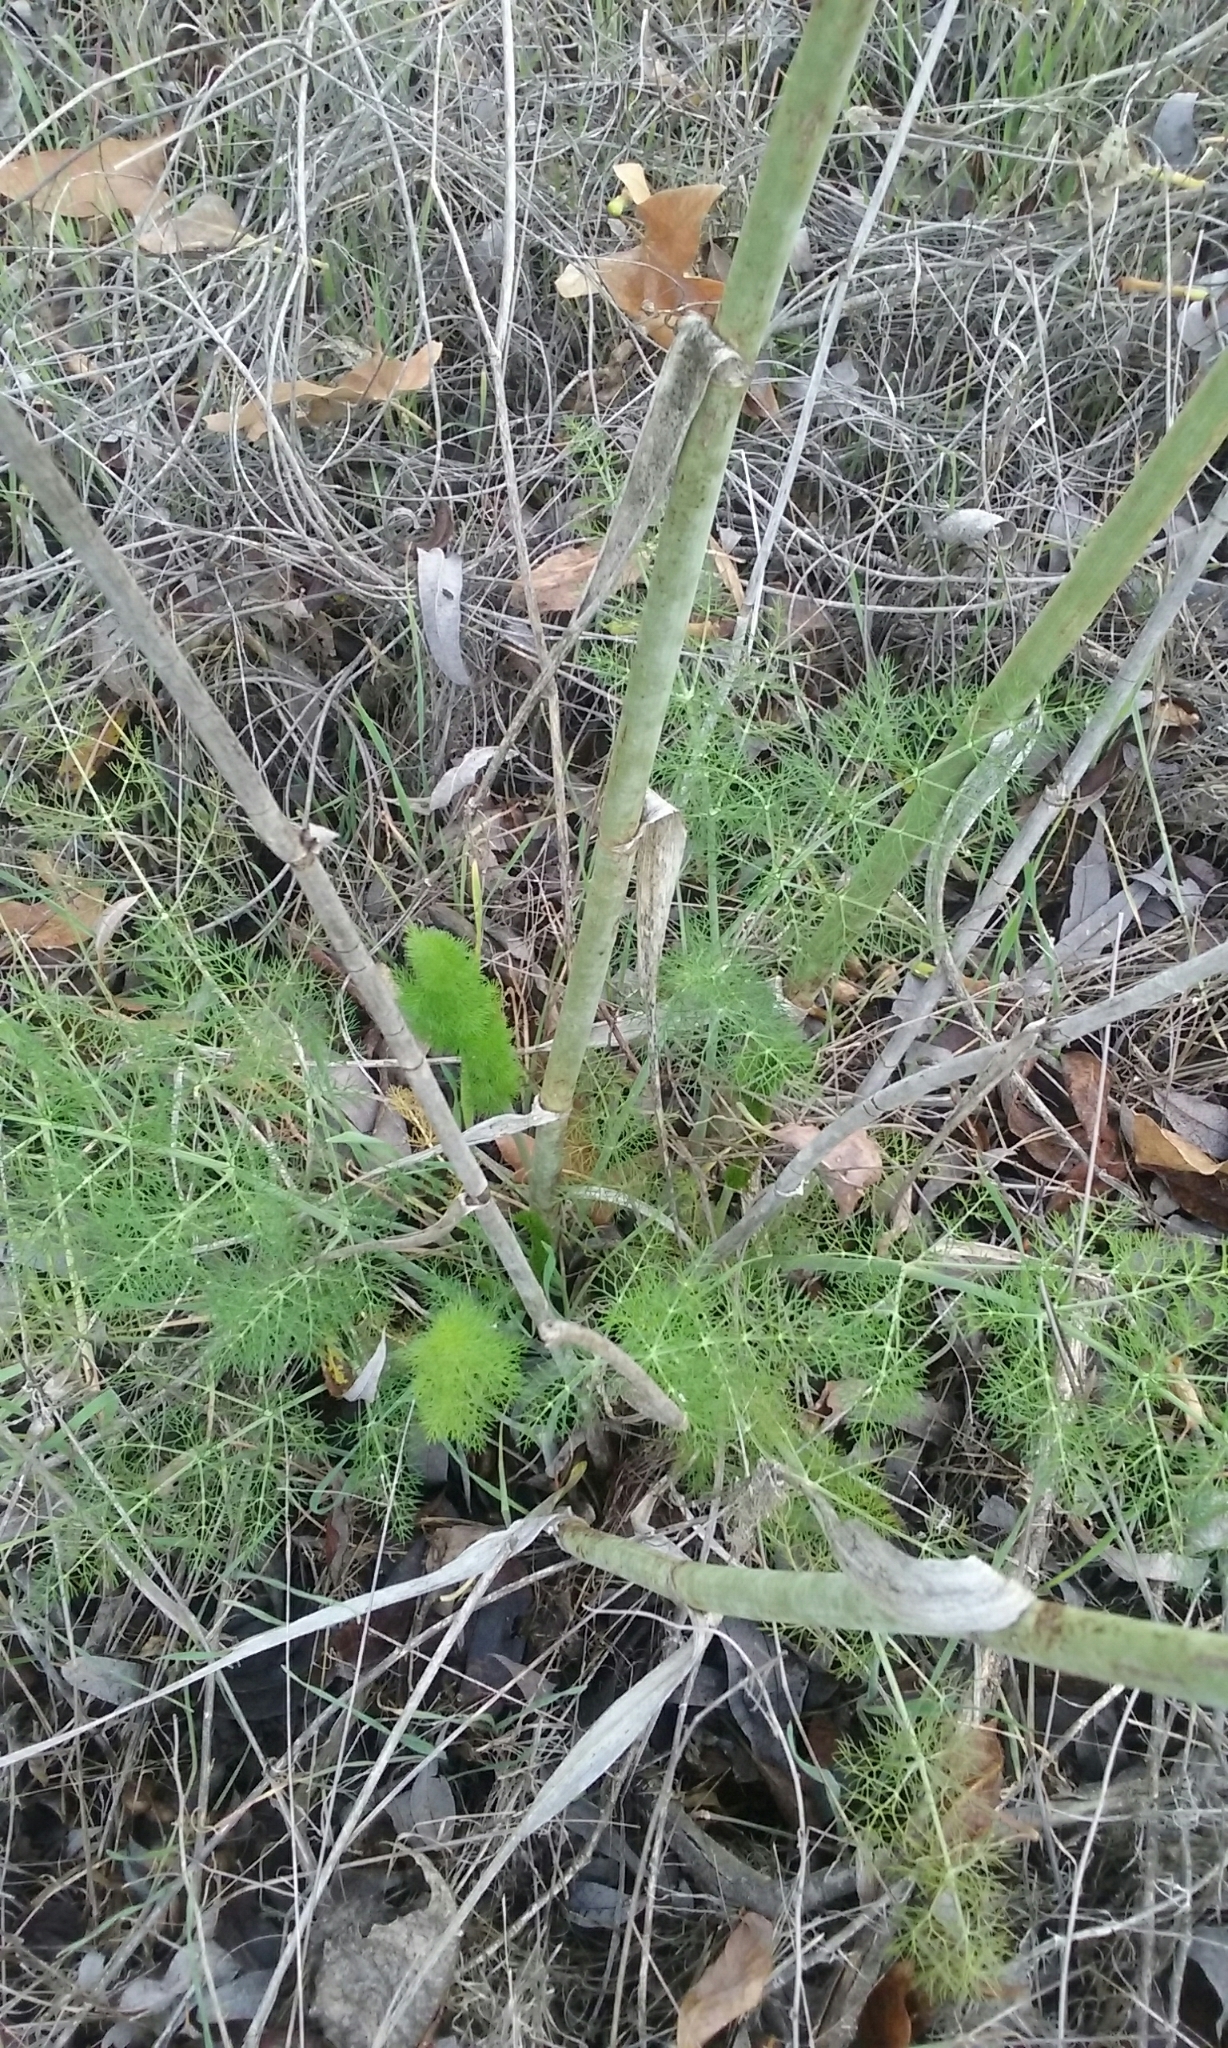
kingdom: Plantae
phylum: Tracheophyta
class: Magnoliopsida
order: Apiales
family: Apiaceae
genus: Foeniculum
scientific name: Foeniculum vulgare
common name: Fennel
